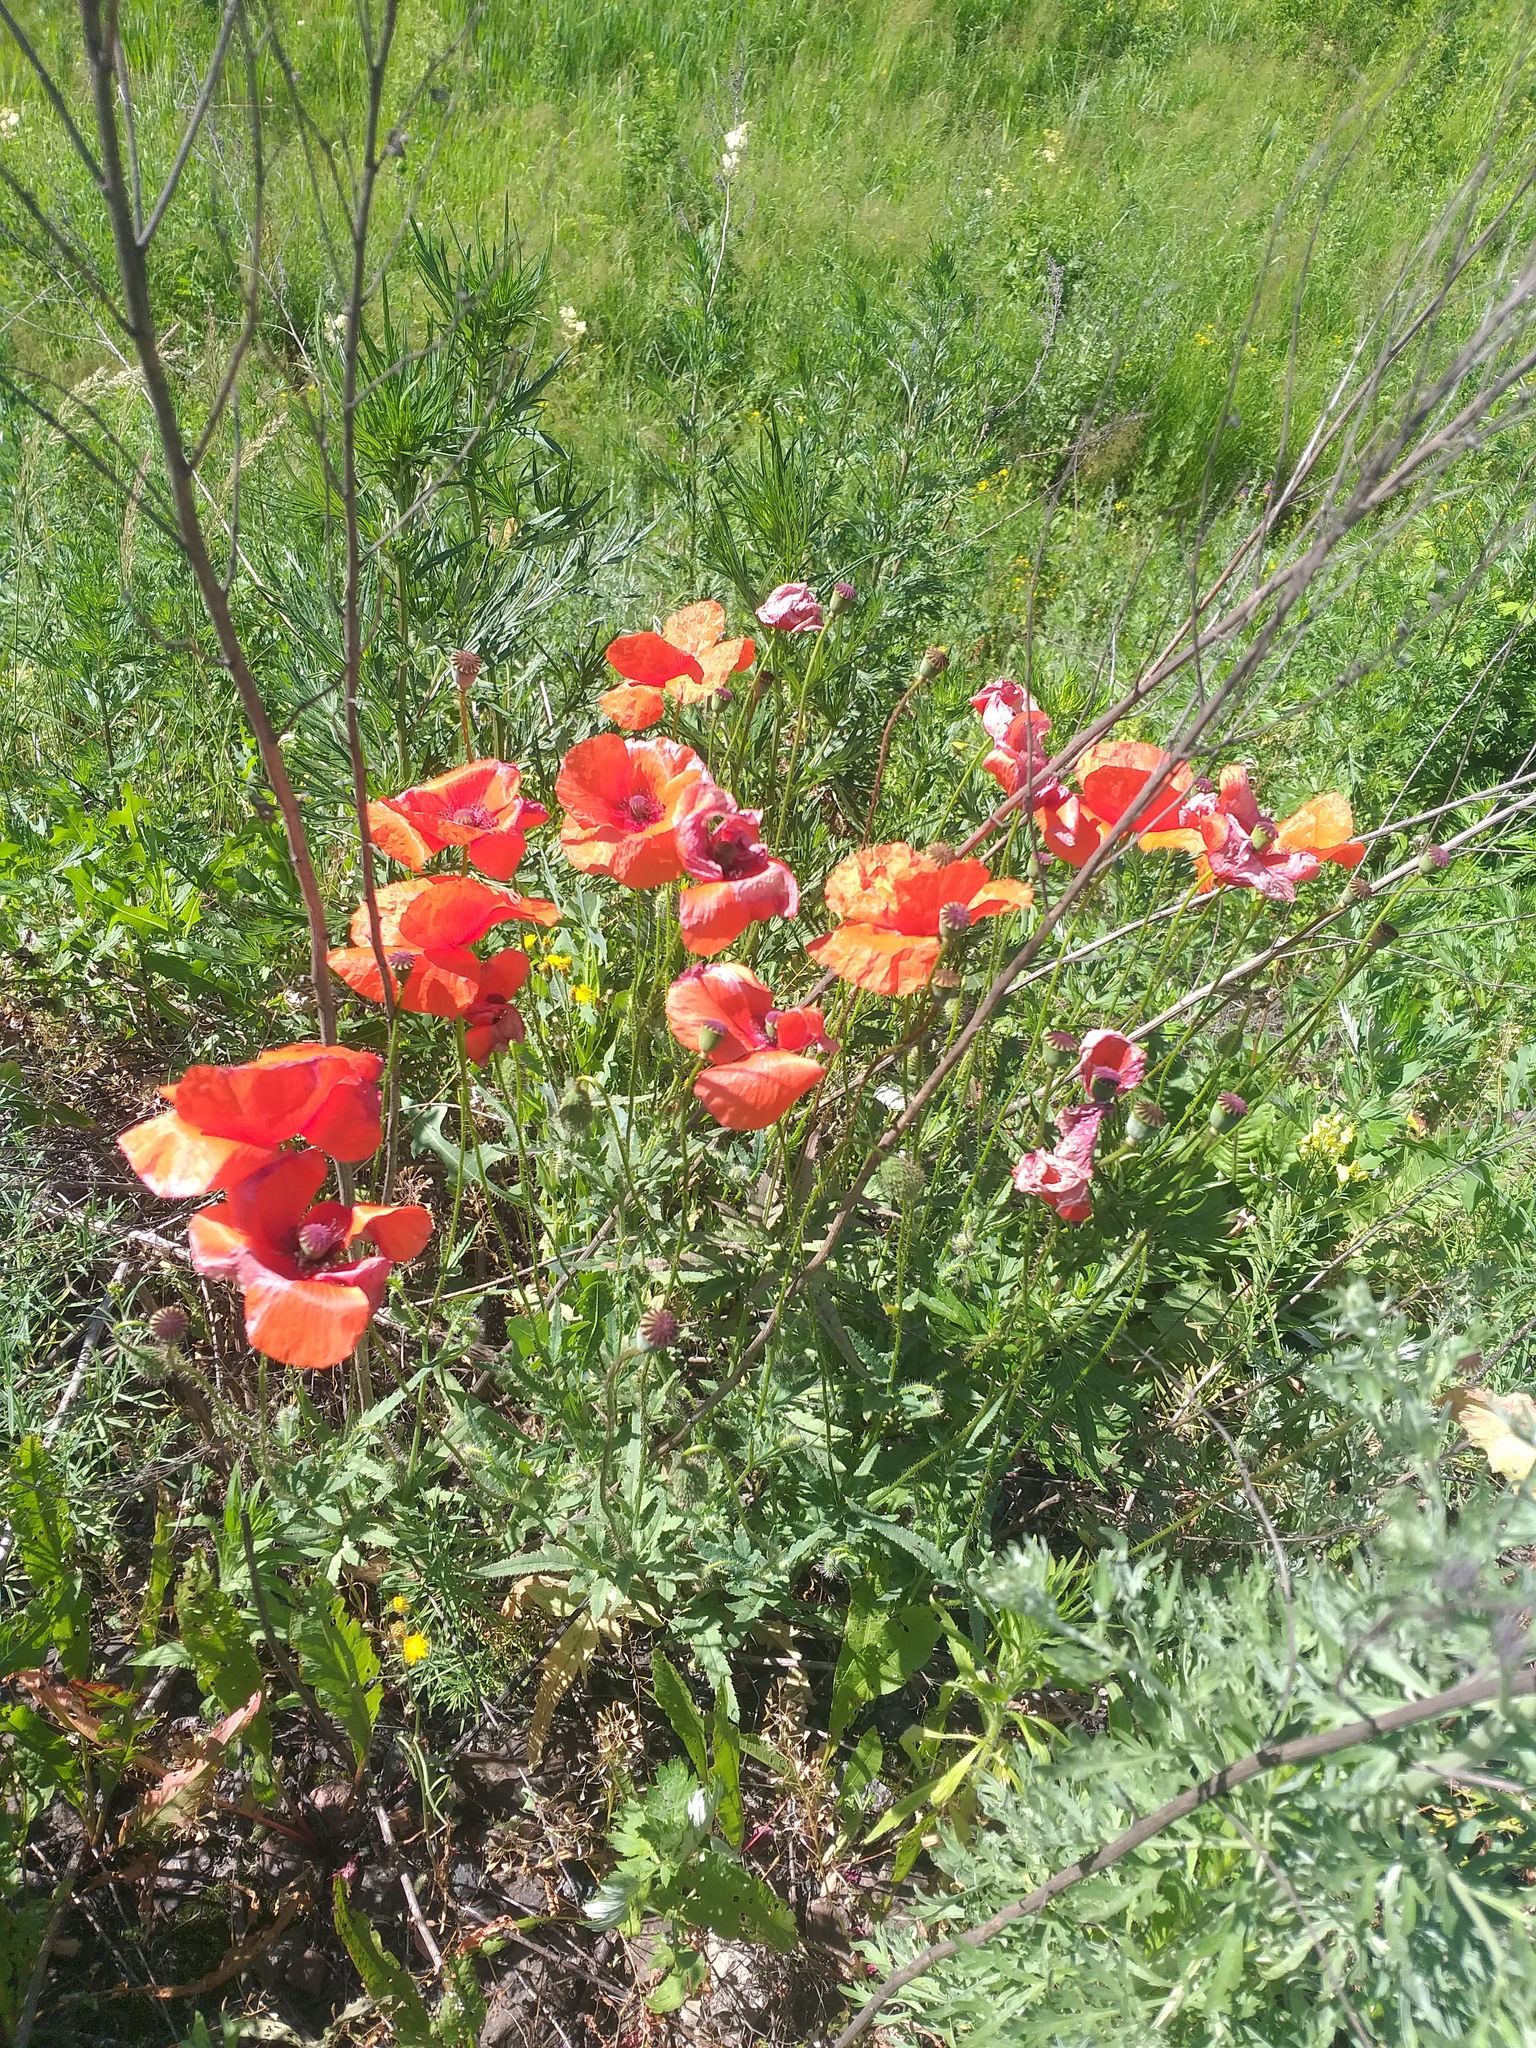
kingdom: Plantae
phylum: Tracheophyta
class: Magnoliopsida
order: Ranunculales
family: Papaveraceae
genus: Papaver
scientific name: Papaver rhoeas
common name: Corn poppy
